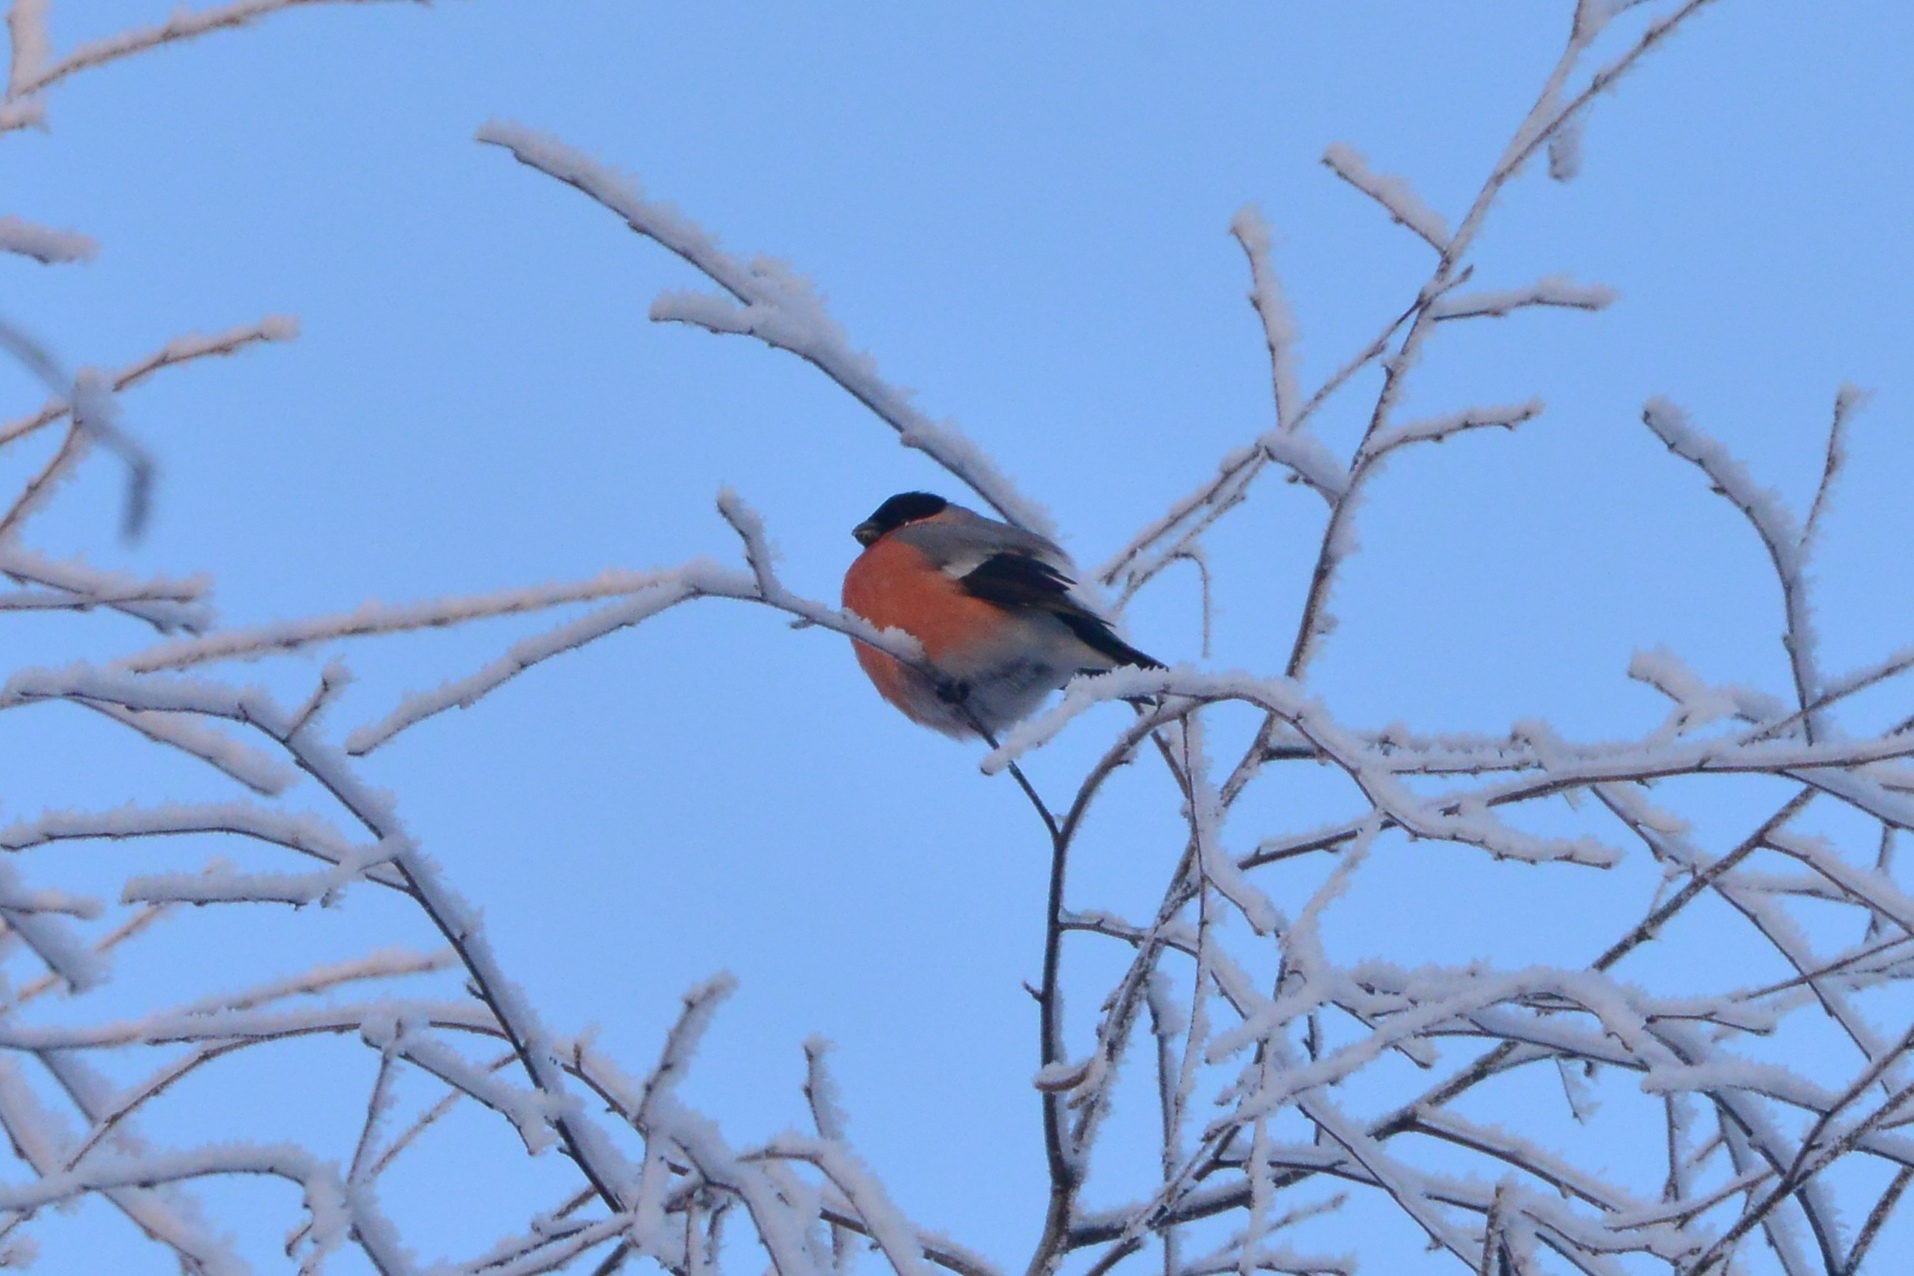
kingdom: Animalia
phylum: Chordata
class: Aves
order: Passeriformes
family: Fringillidae
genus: Pyrrhula
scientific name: Pyrrhula pyrrhula
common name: Eurasian bullfinch
